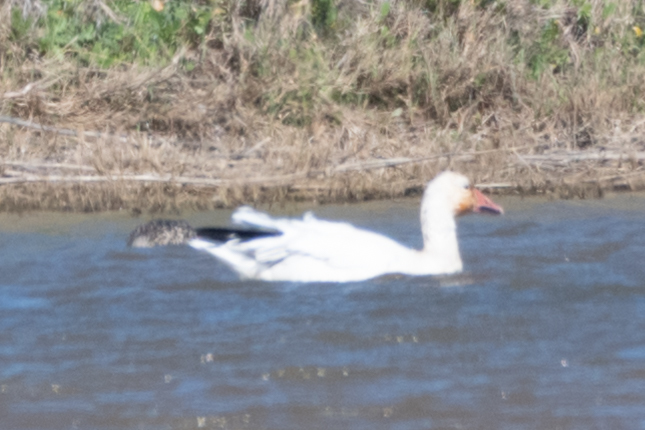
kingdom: Animalia
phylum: Chordata
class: Aves
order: Anseriformes
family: Anatidae
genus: Anser
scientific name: Anser caerulescens
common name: Snow goose
